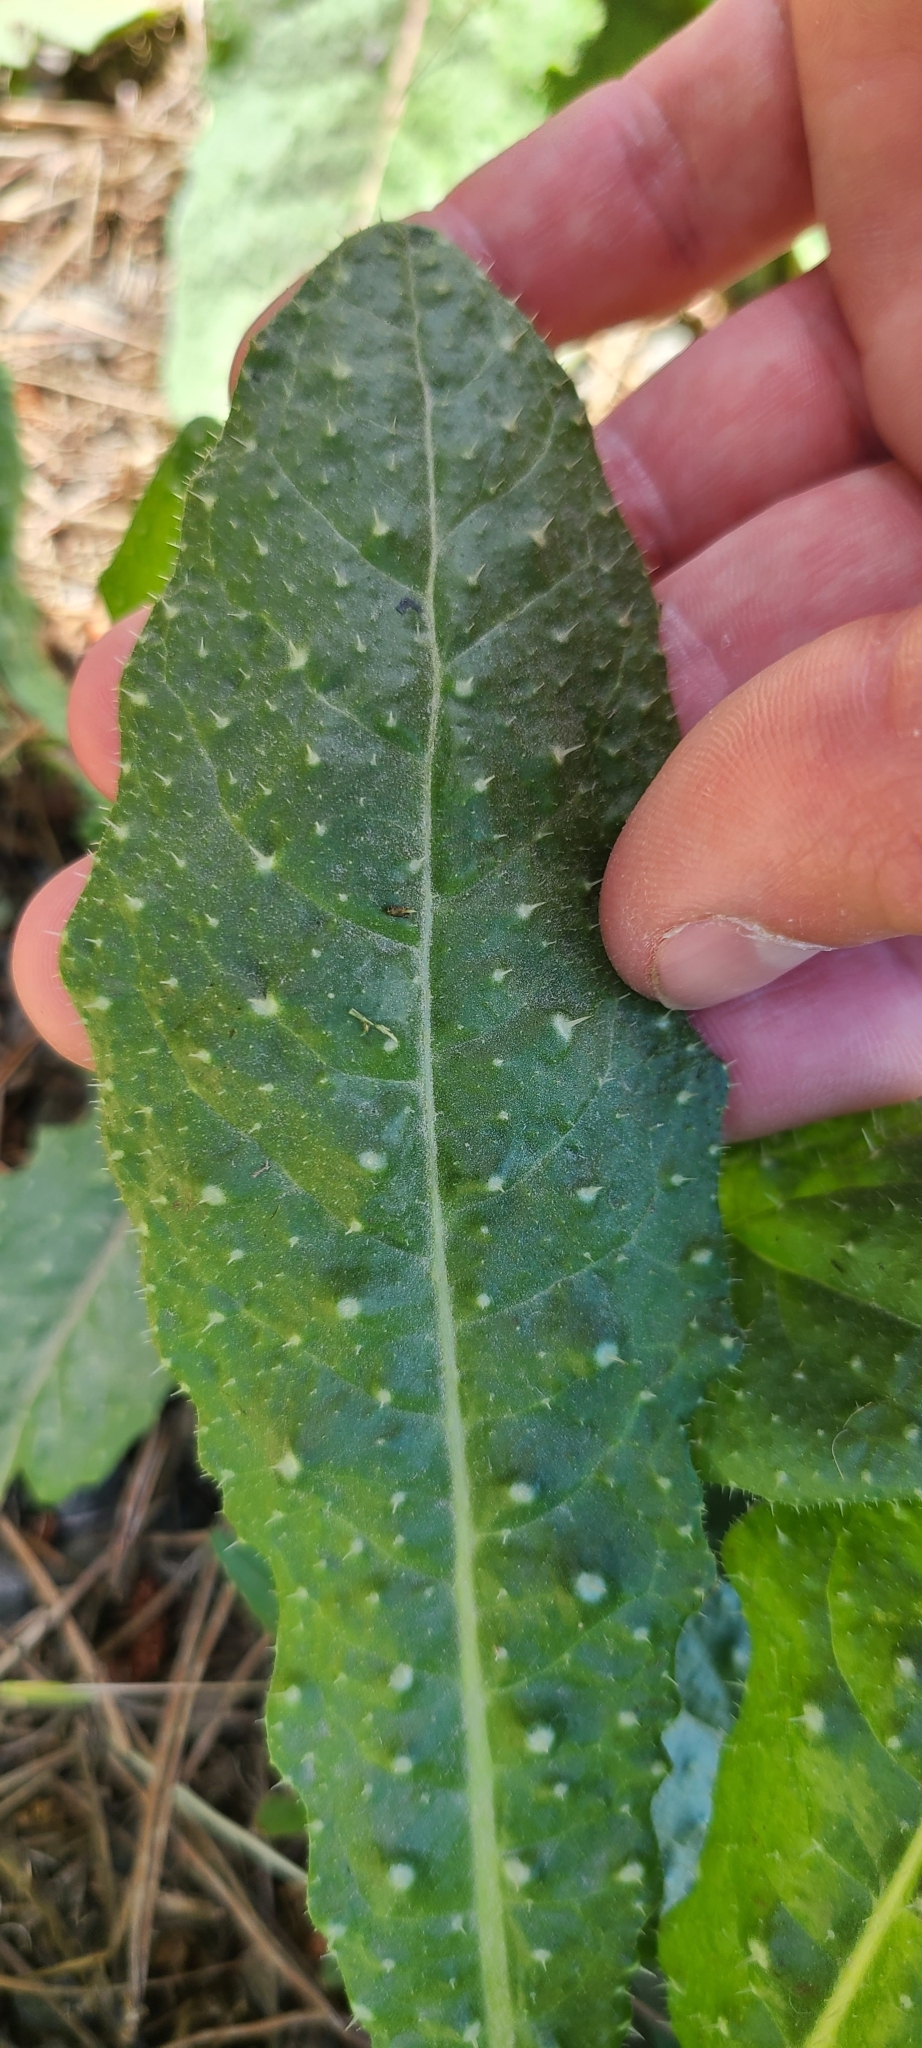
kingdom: Plantae
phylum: Tracheophyta
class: Magnoliopsida
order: Asterales
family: Asteraceae
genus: Helminthotheca
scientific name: Helminthotheca echioides
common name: Ox-tongue
